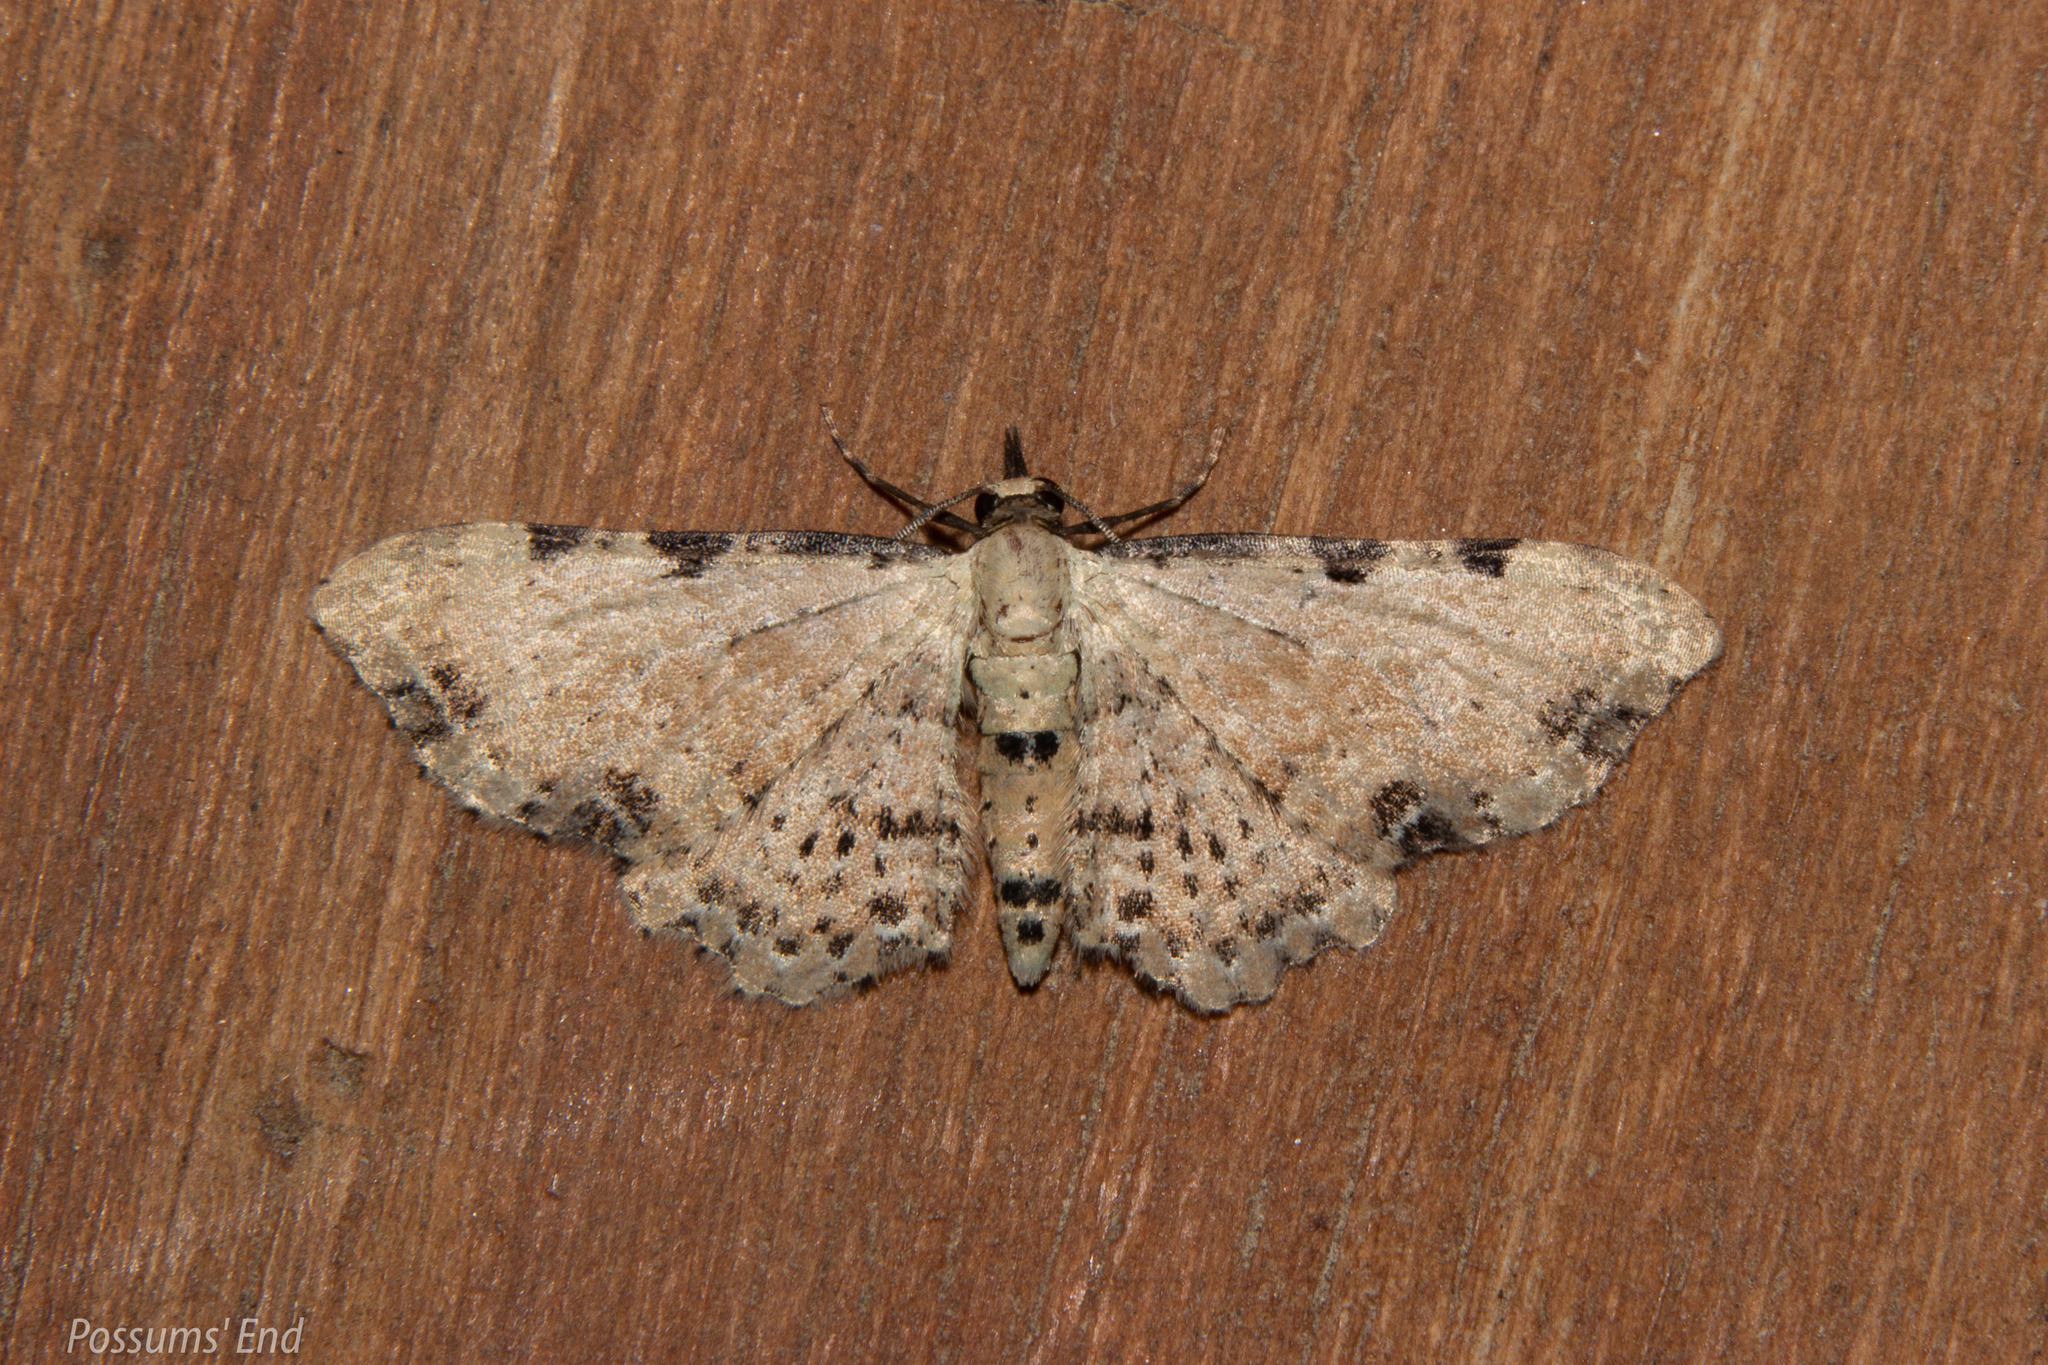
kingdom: Animalia
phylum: Arthropoda
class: Insecta
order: Lepidoptera
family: Geometridae
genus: Pasiphila
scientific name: Pasiphila fumipalpata
